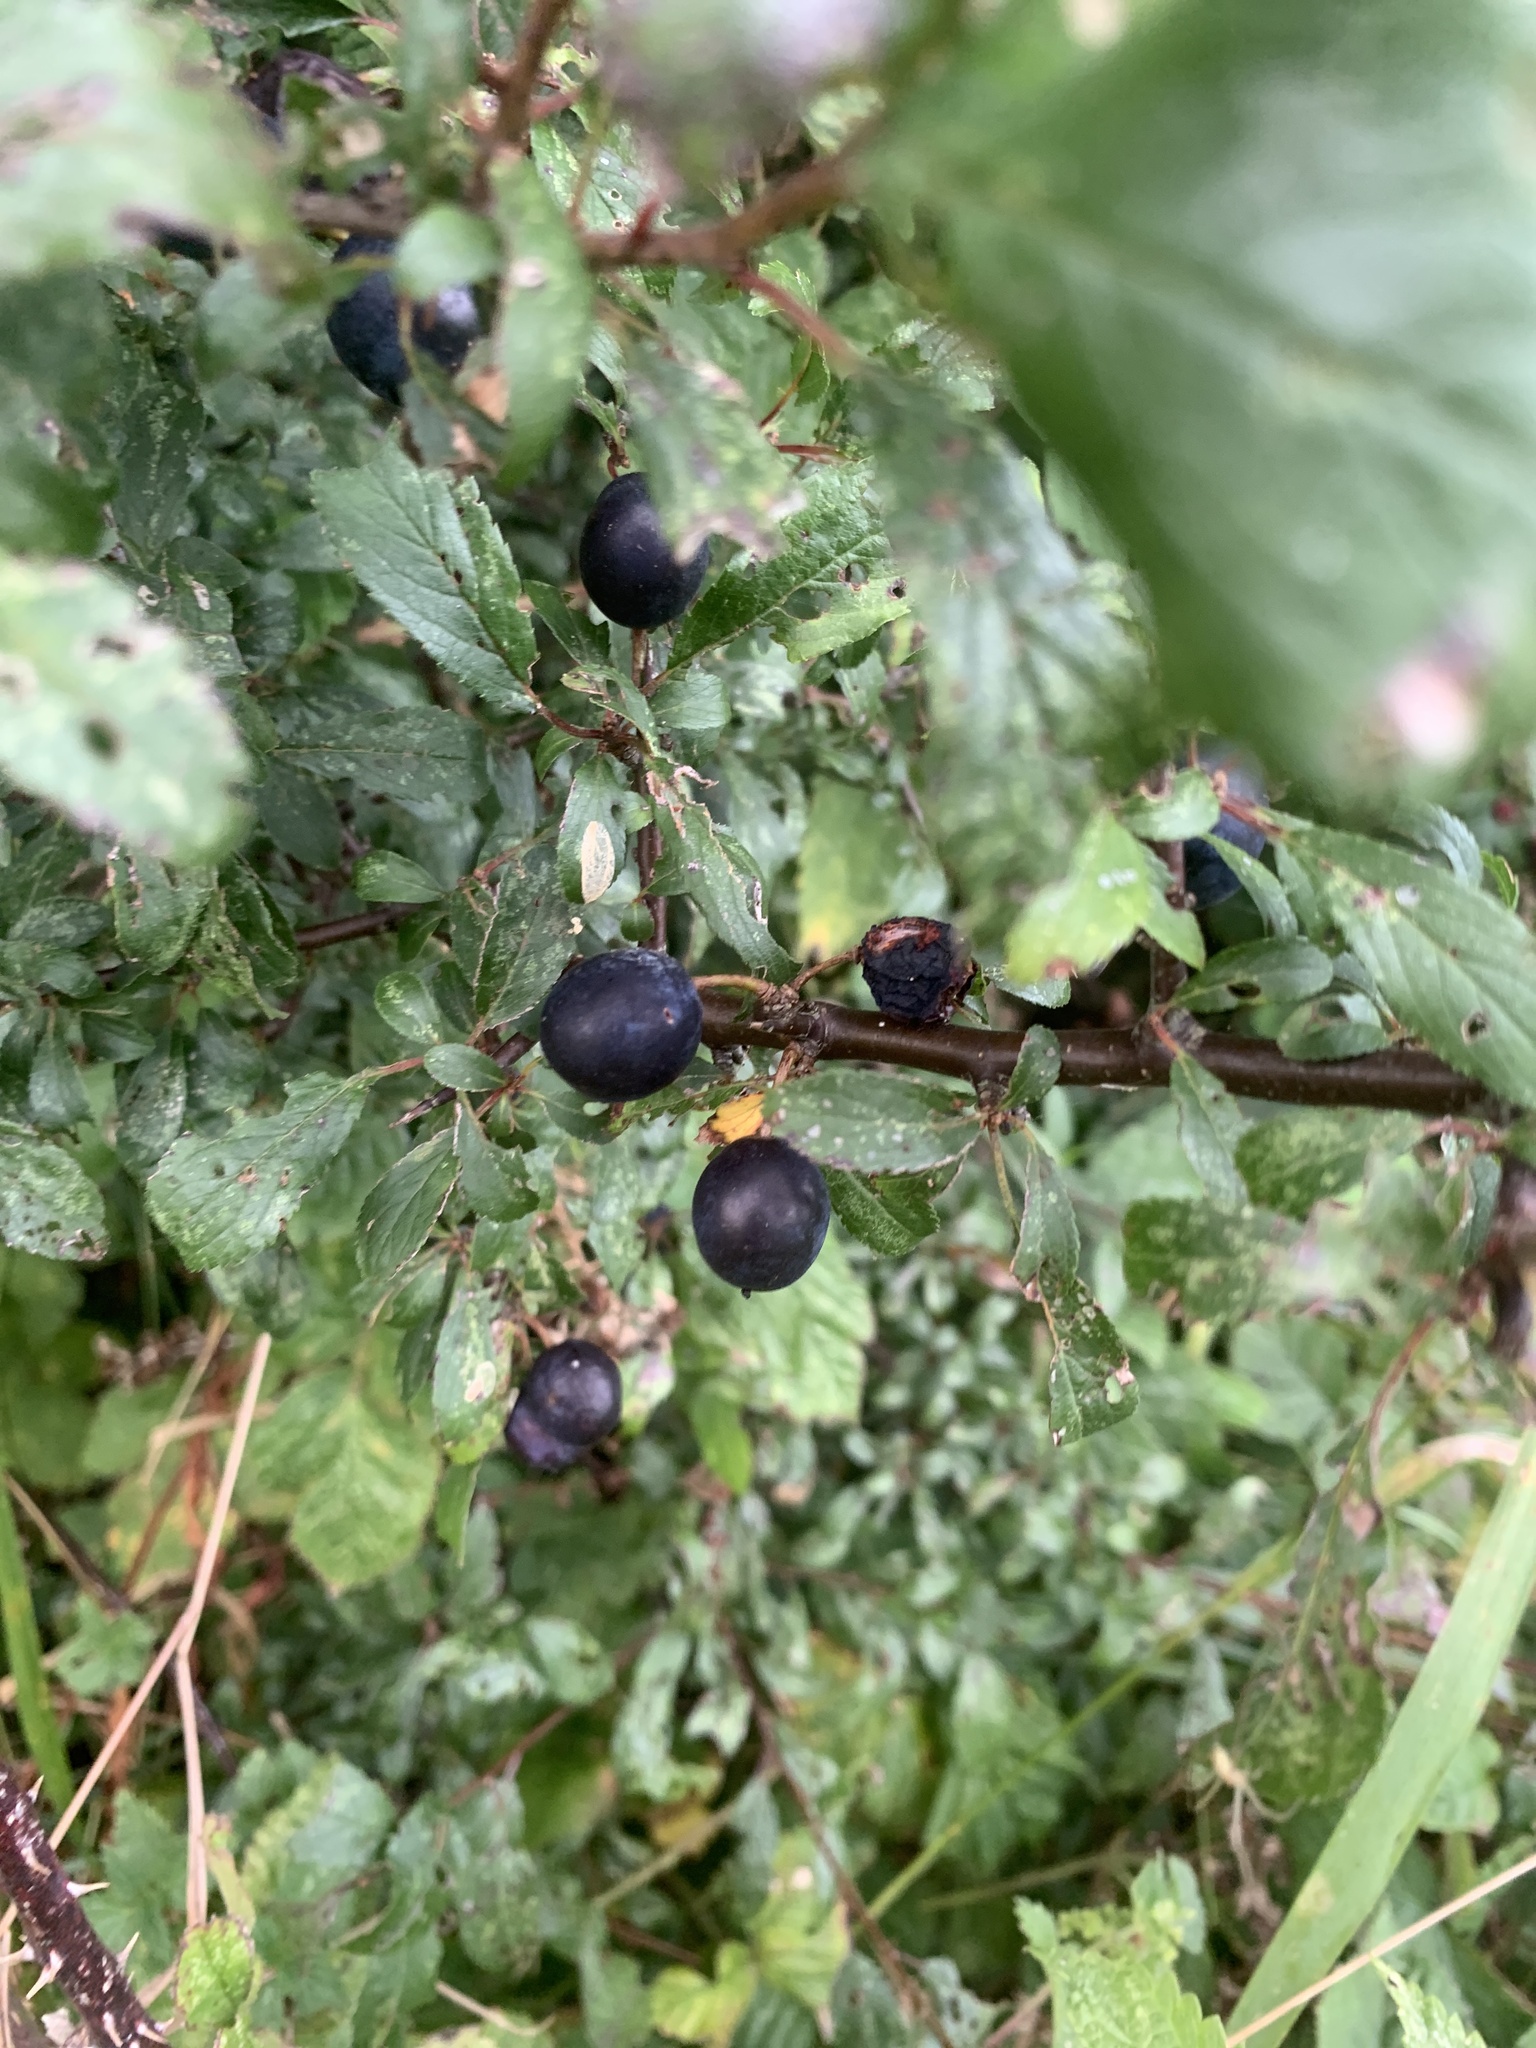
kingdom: Plantae
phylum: Tracheophyta
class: Magnoliopsida
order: Rosales
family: Rosaceae
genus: Prunus
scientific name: Prunus spinosa
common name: Blackthorn
